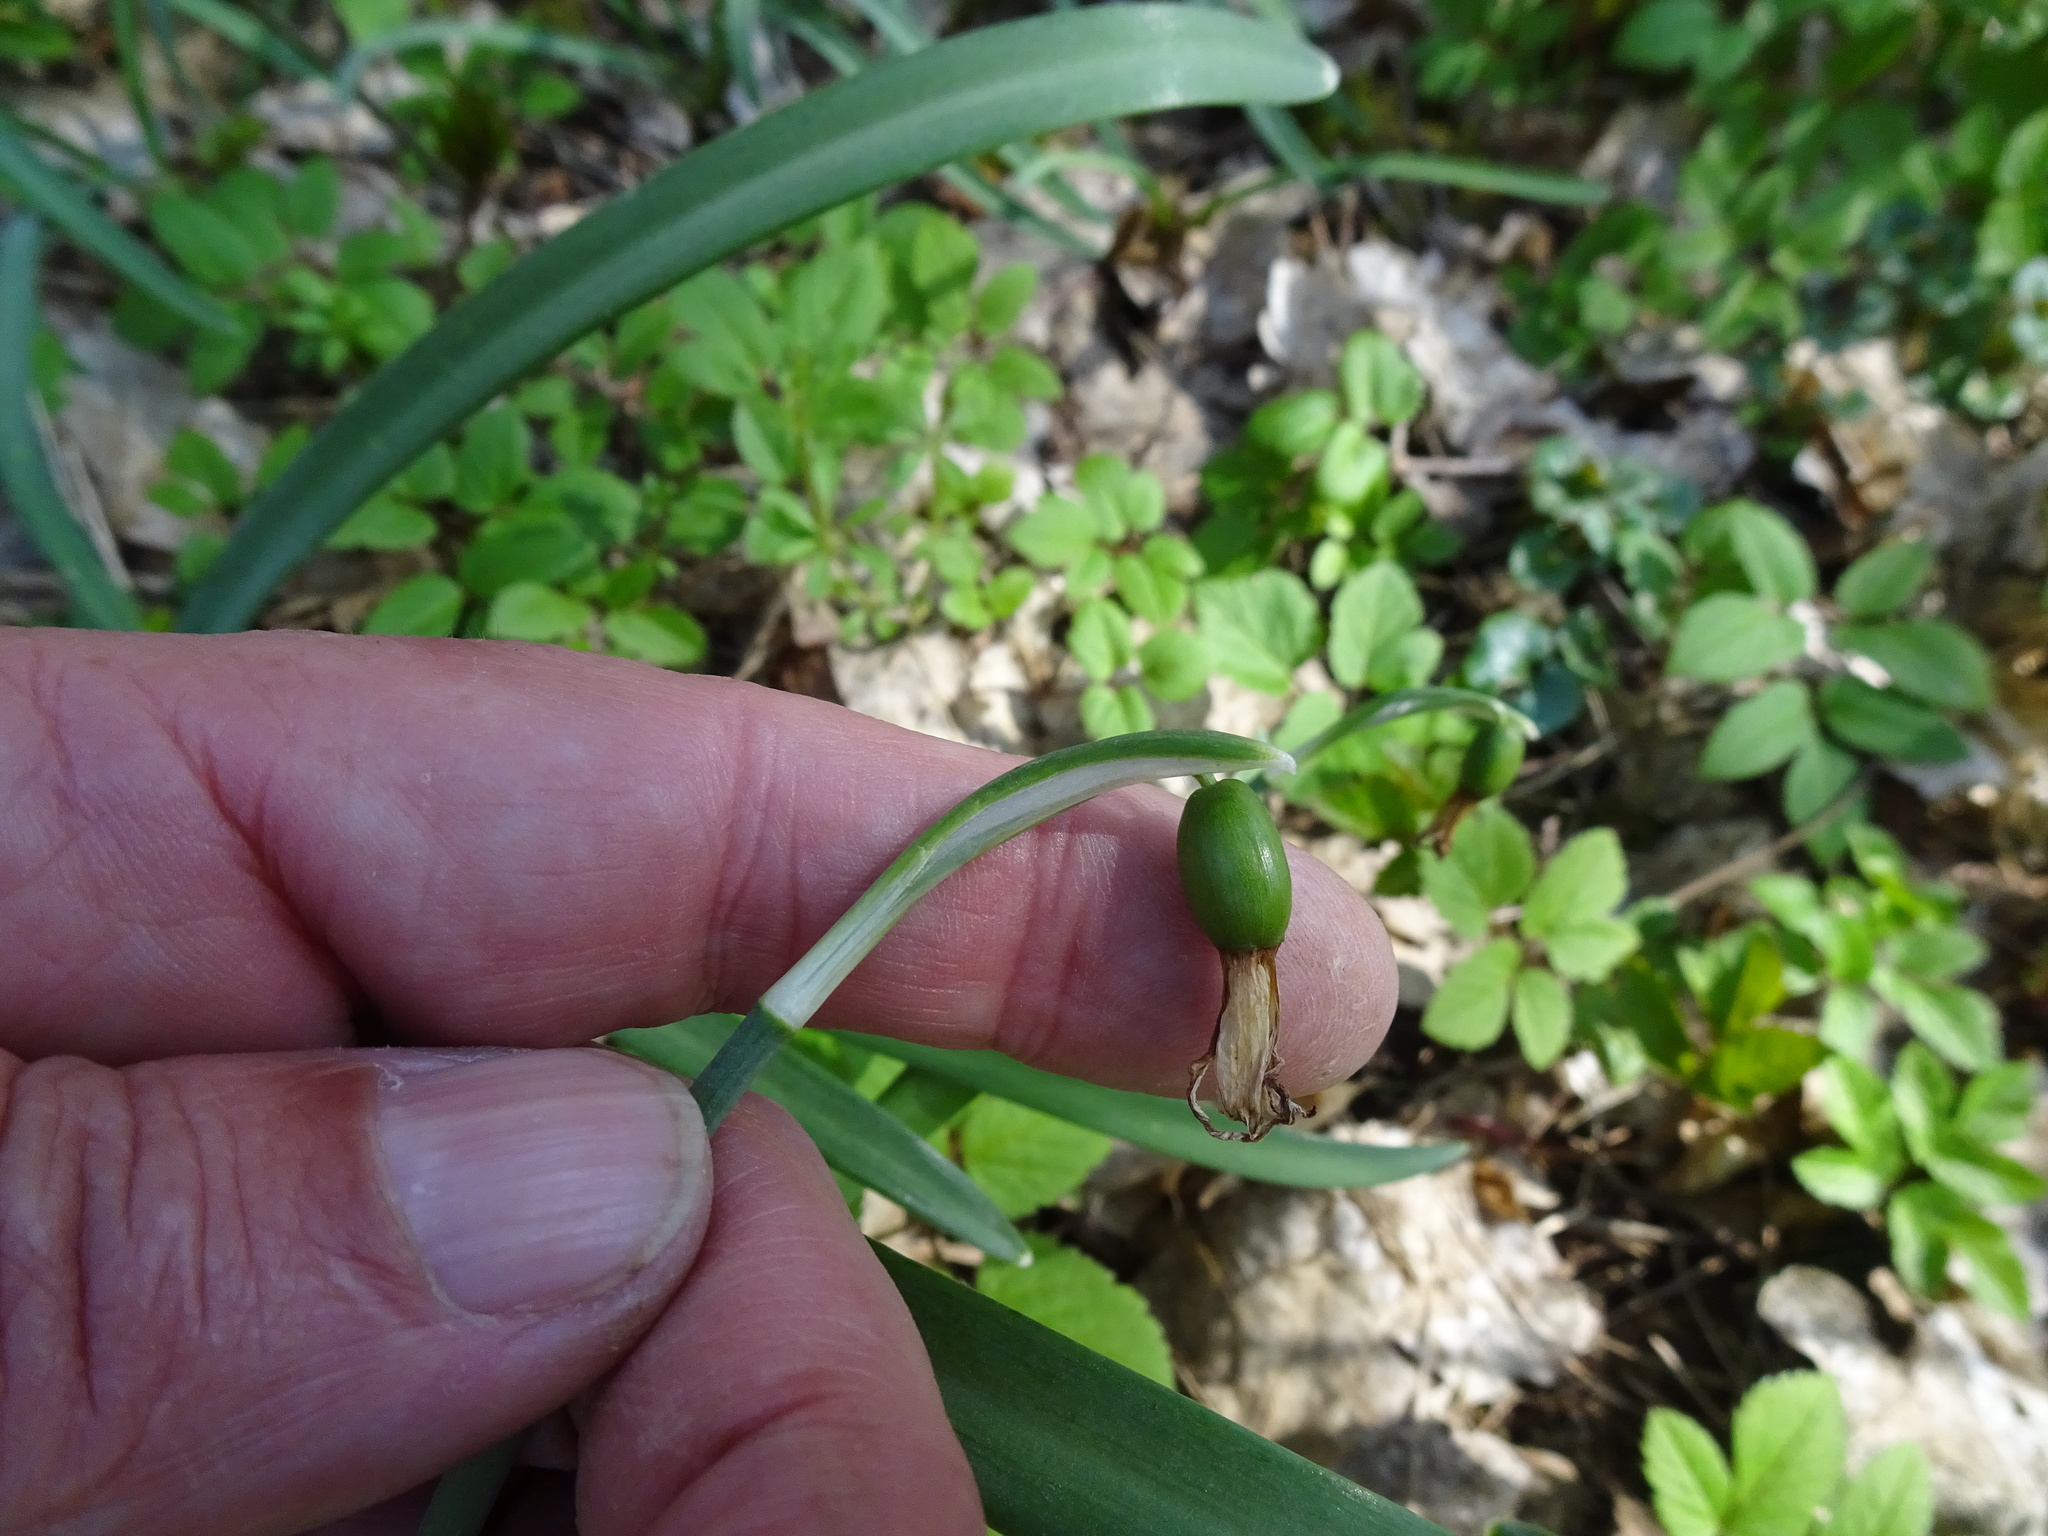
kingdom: Plantae
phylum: Tracheophyta
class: Liliopsida
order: Asparagales
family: Amaryllidaceae
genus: Galanthus
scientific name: Galanthus nivalis
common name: Snowdrop
